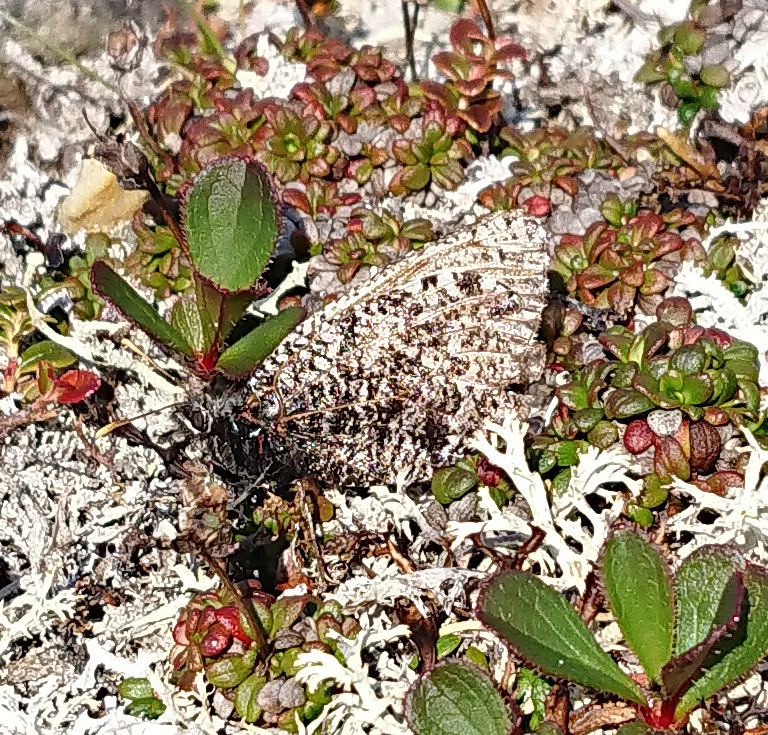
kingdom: Animalia
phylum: Arthropoda
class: Insecta
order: Lepidoptera
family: Nymphalidae
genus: Oeneis
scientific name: Oeneis melissa
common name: Melissa arctic
